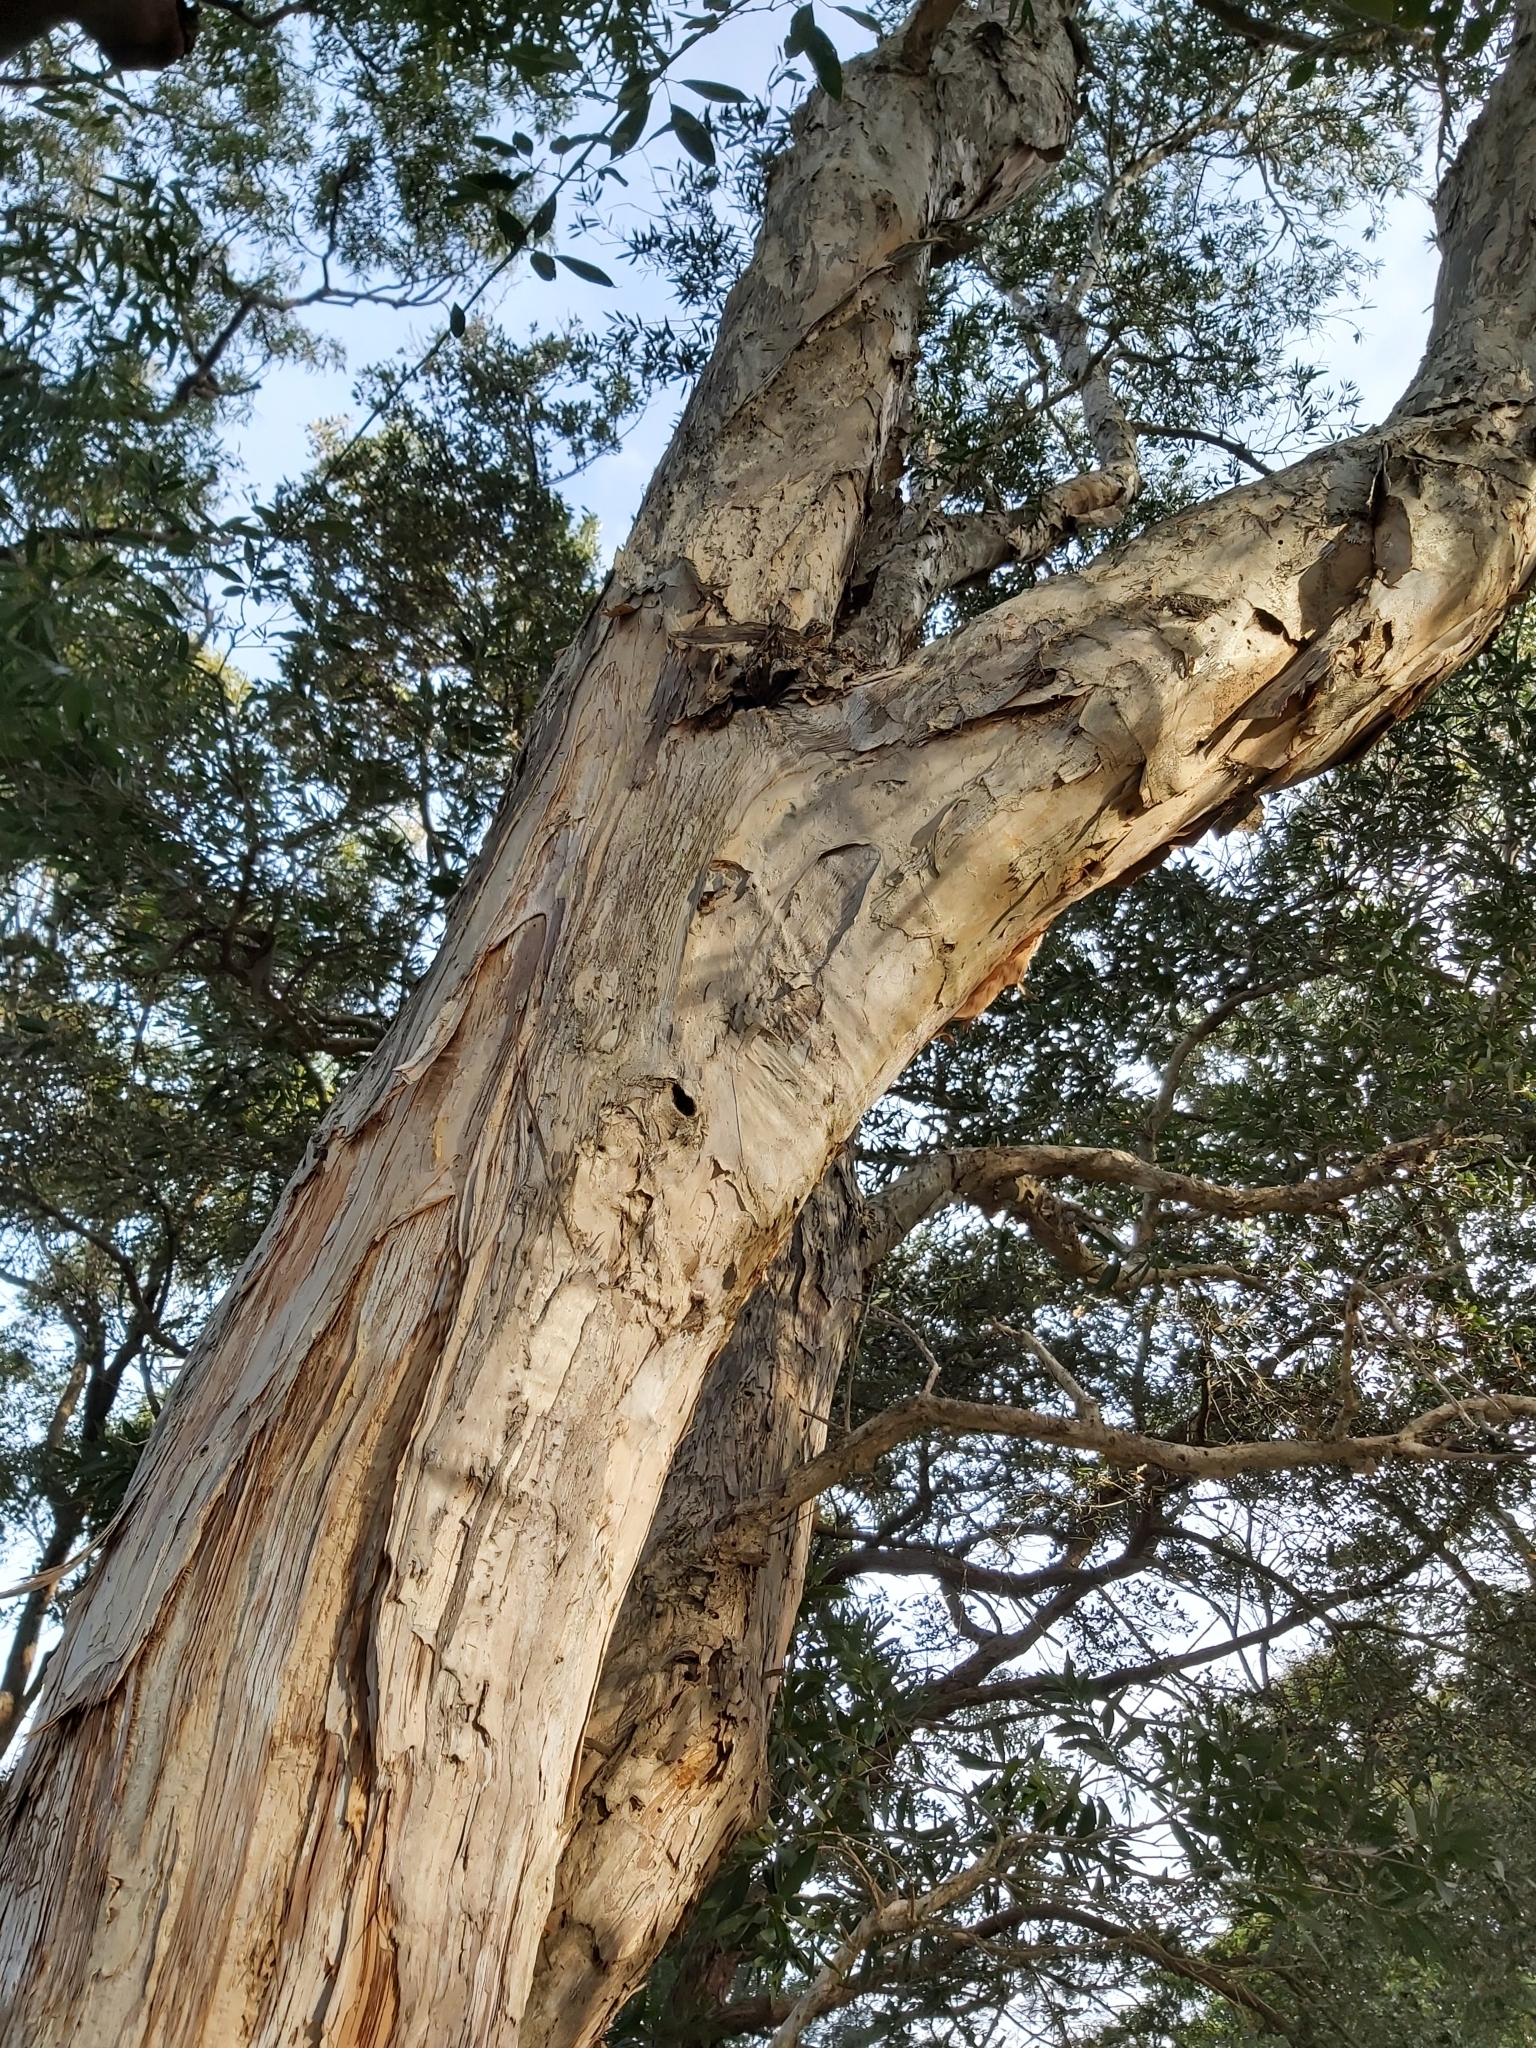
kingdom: Plantae
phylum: Tracheophyta
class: Magnoliopsida
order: Myrtales
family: Myrtaceae
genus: Melaleuca
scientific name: Melaleuca quinquenervia
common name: Punktree
